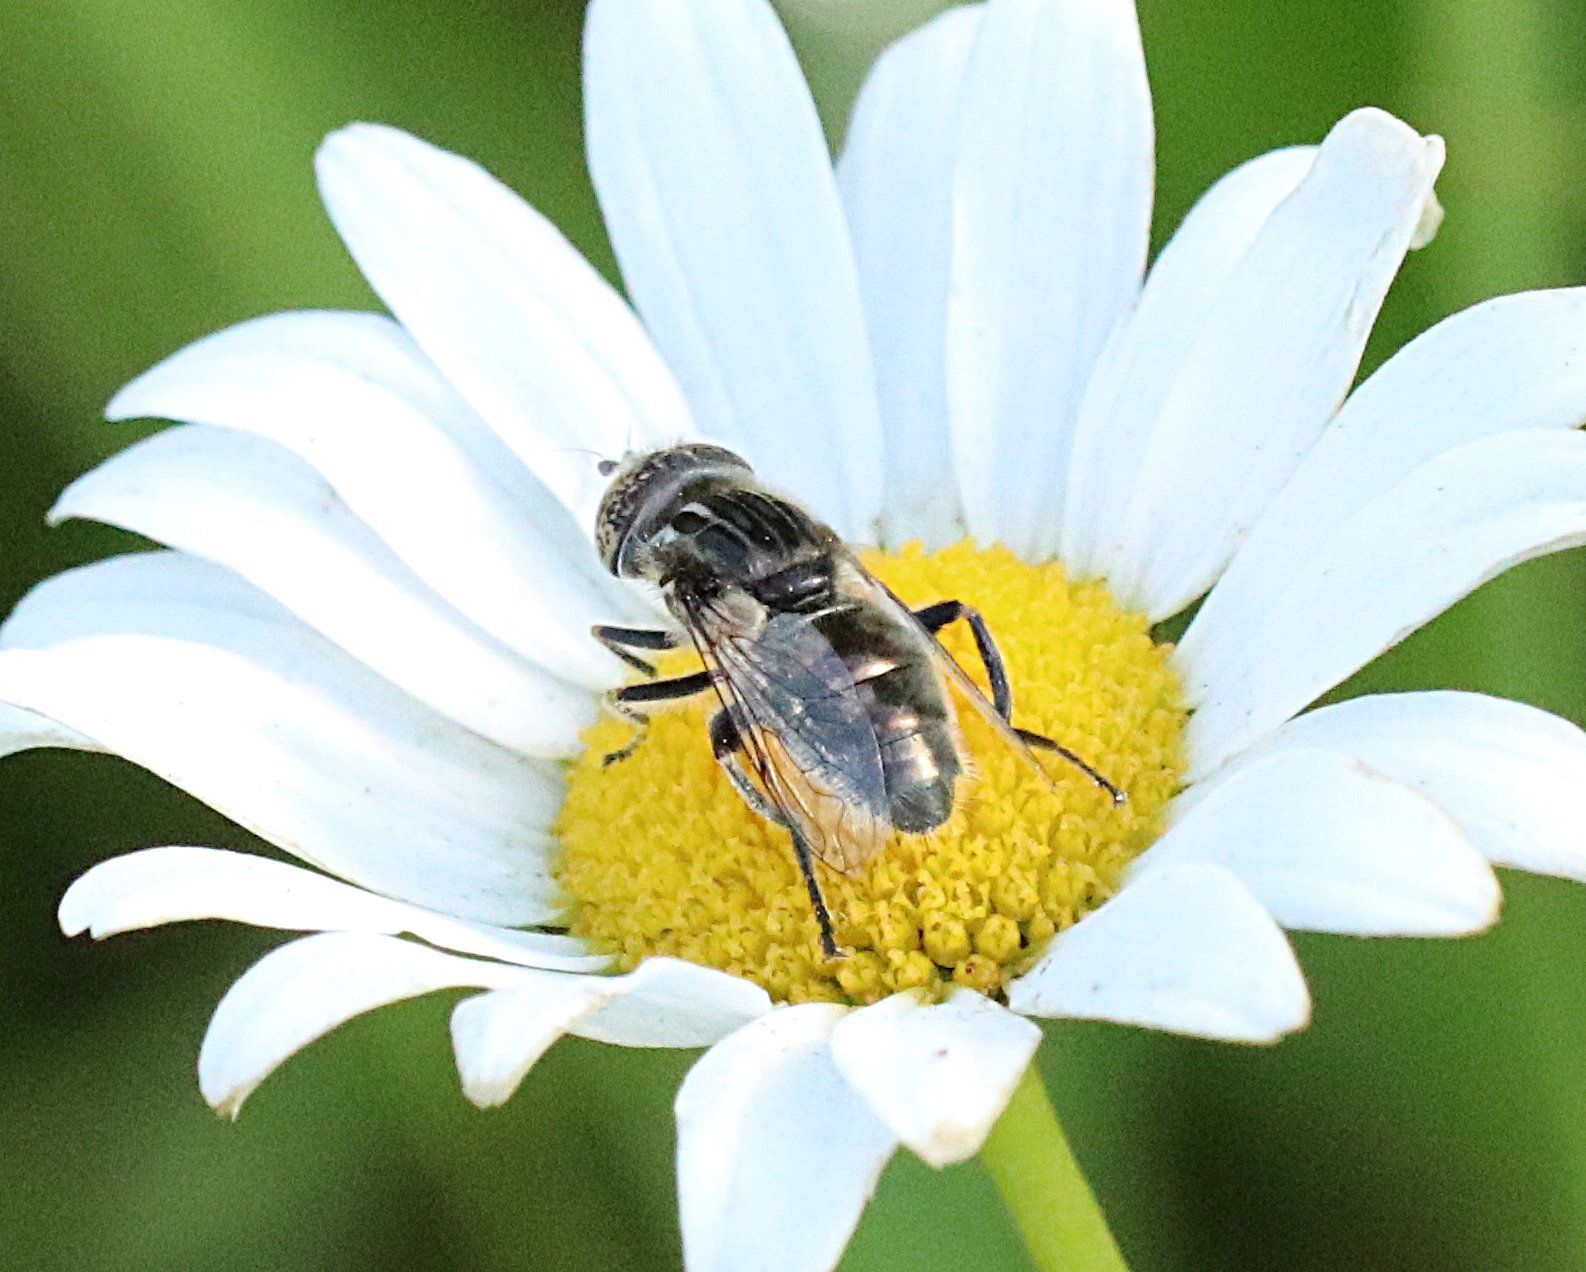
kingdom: Animalia
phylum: Arthropoda
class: Insecta
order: Diptera
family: Syrphidae
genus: Eristalinus
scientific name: Eristalinus sepulchralis
